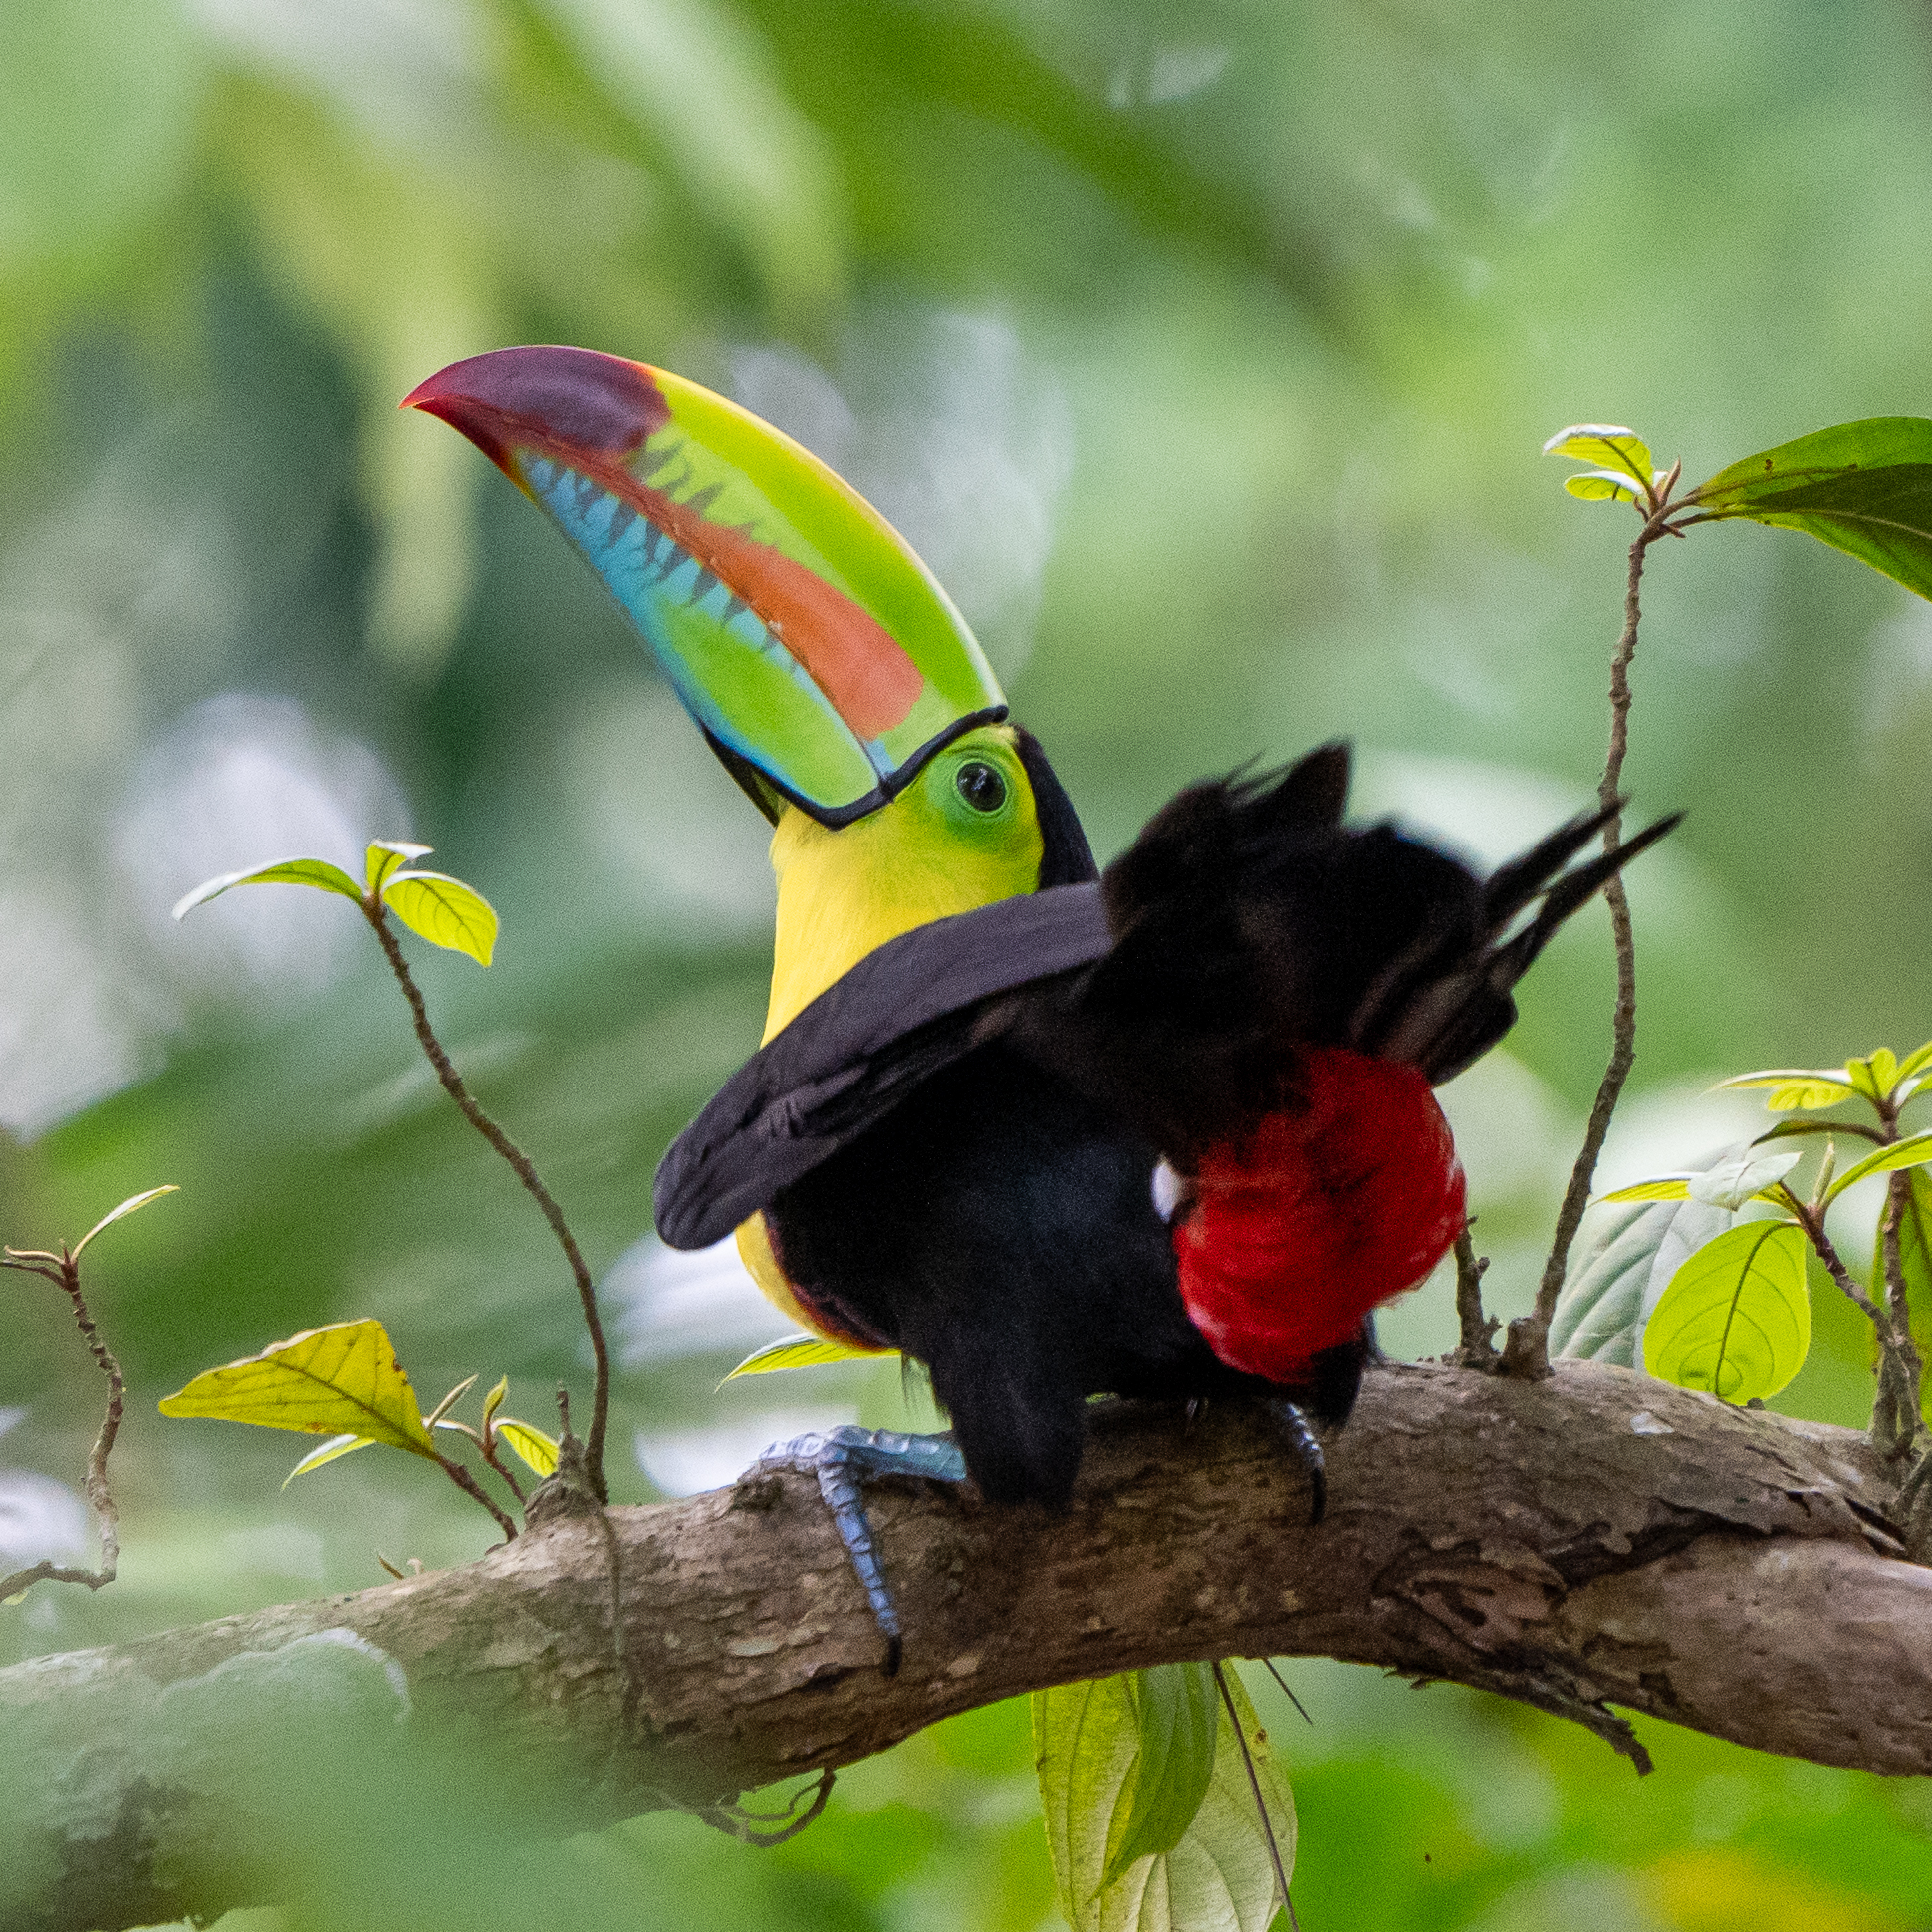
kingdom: Animalia
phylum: Chordata
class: Aves
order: Piciformes
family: Ramphastidae
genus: Ramphastos
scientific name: Ramphastos sulfuratus
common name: Keel-billed toucan
